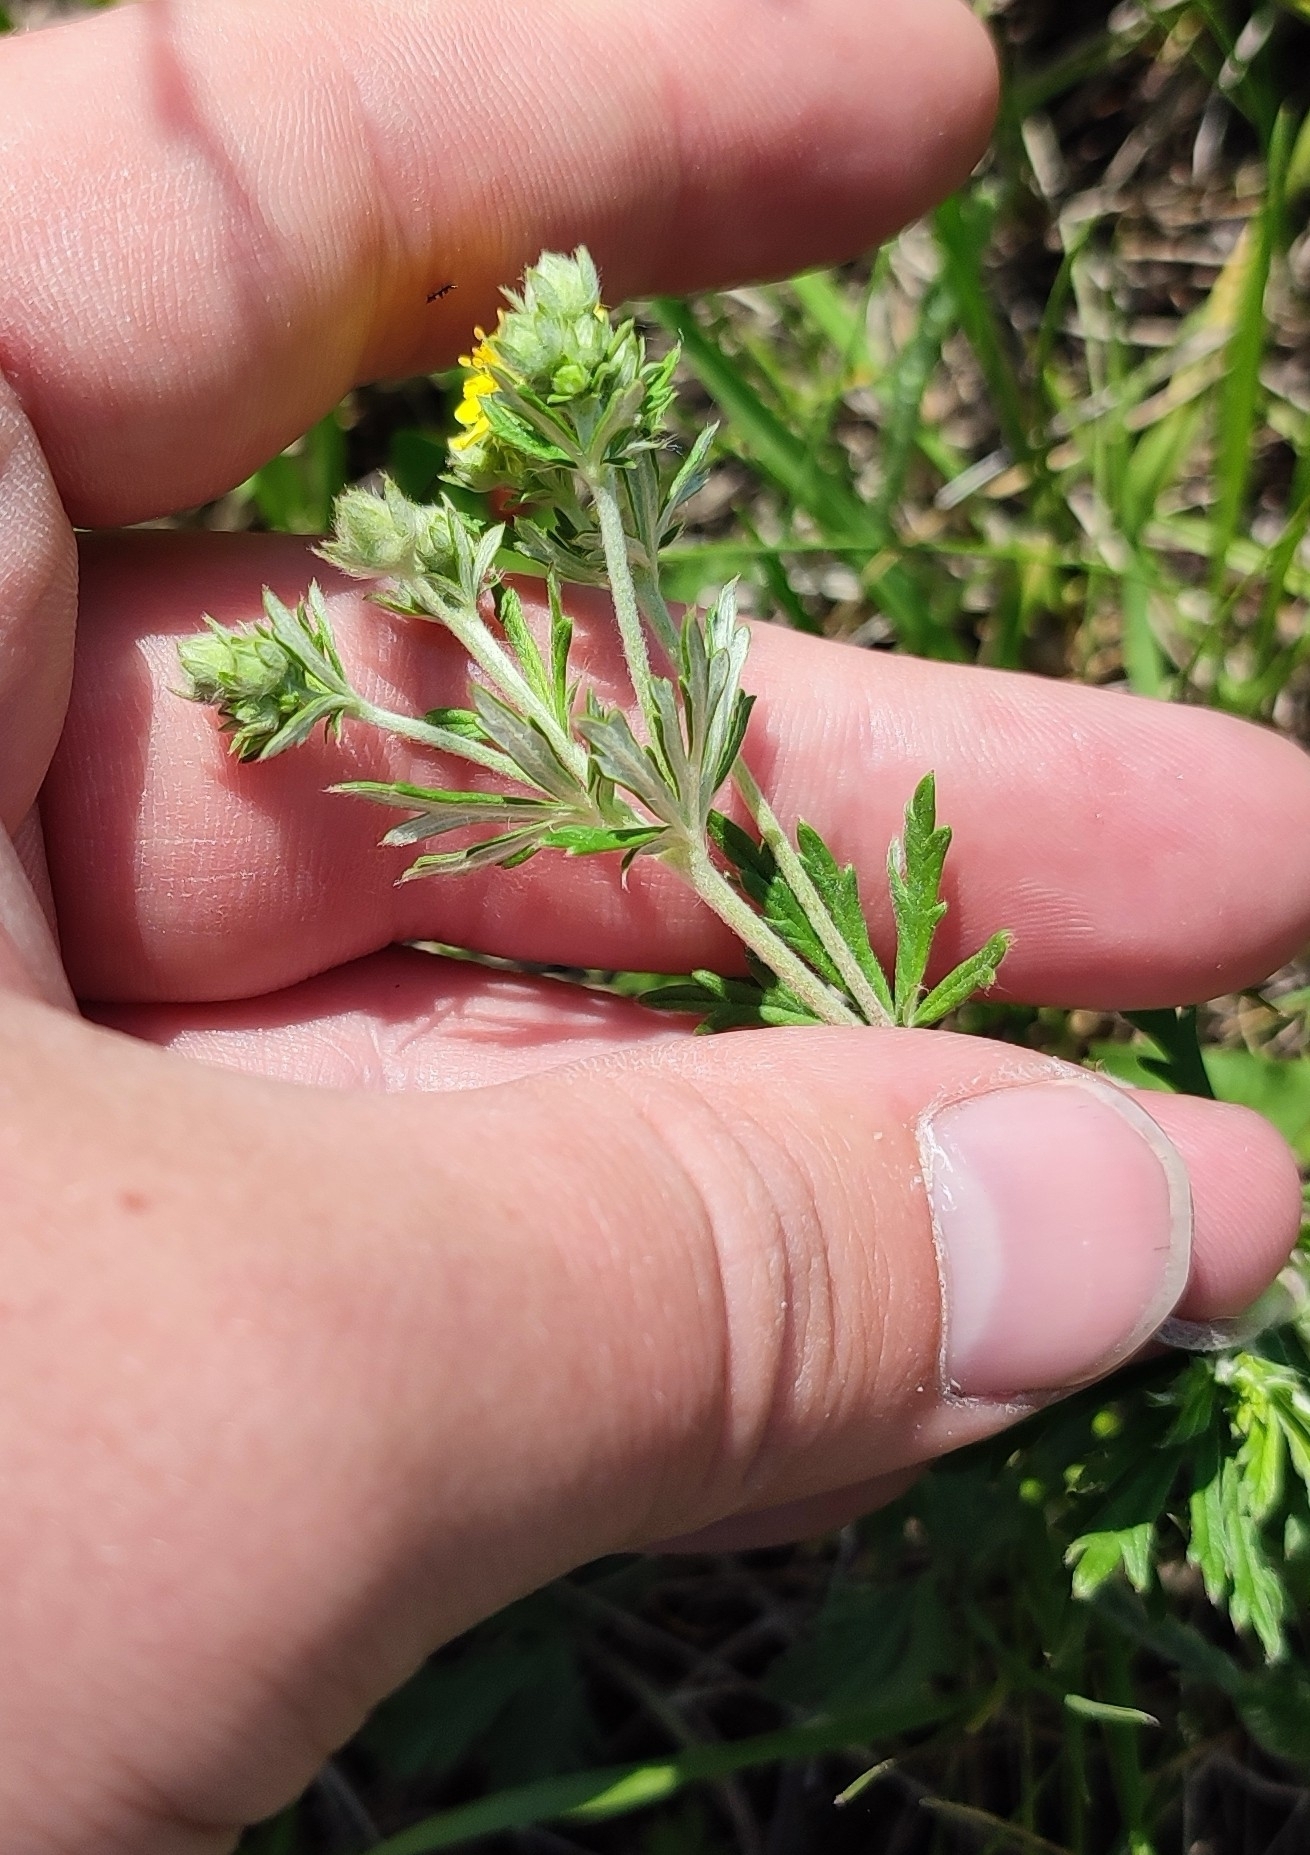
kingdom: Plantae
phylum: Tracheophyta
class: Magnoliopsida
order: Rosales
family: Rosaceae
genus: Potentilla
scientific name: Potentilla argentea
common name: Hoary cinquefoil
